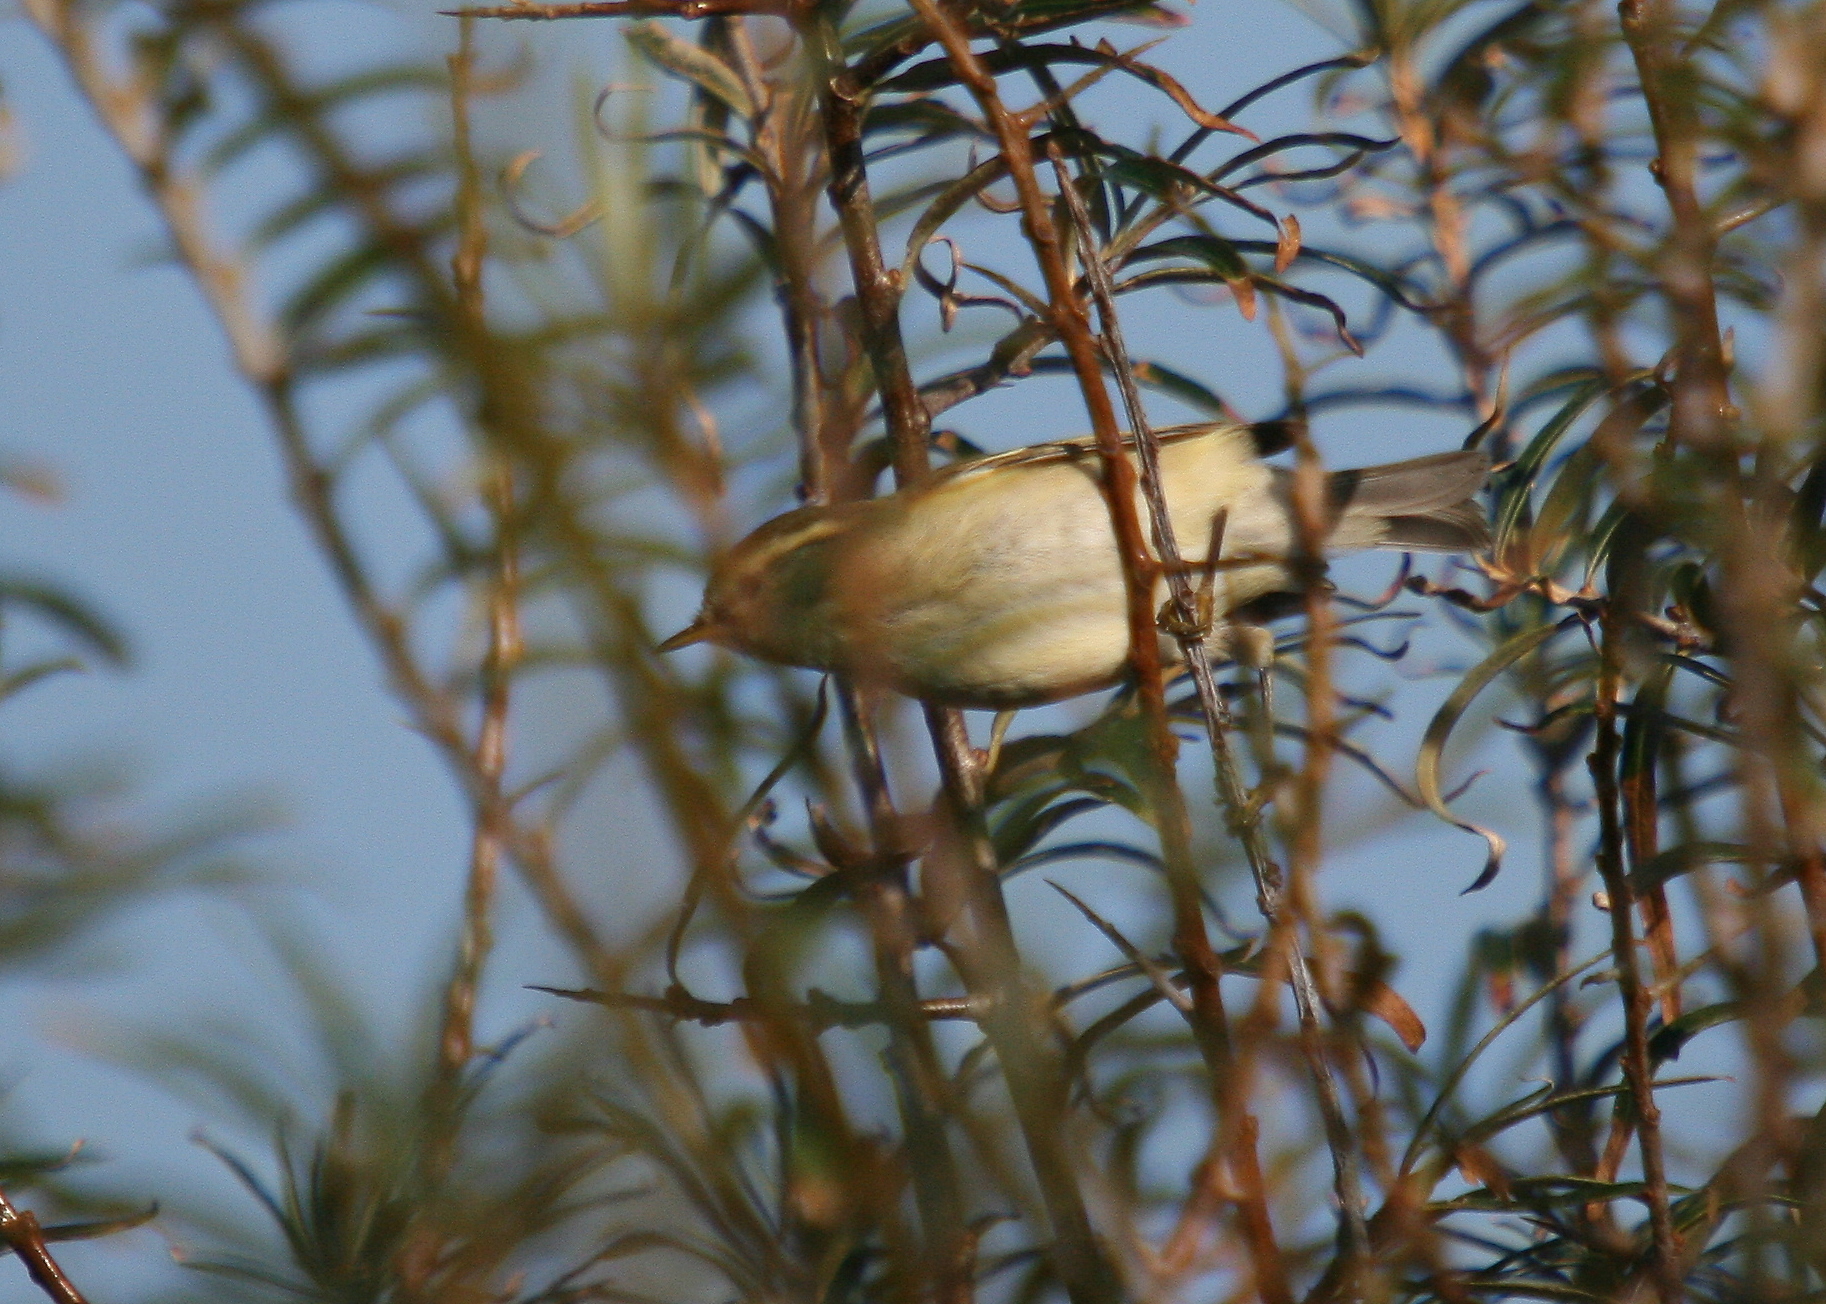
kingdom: Animalia
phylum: Chordata
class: Aves
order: Passeriformes
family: Phylloscopidae
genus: Phylloscopus
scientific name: Phylloscopus humei
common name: Hume's leaf warbler
